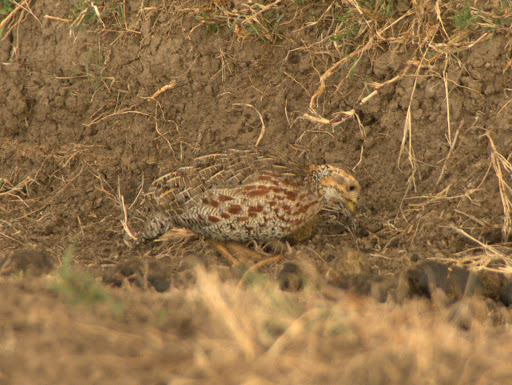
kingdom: Animalia
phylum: Chordata
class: Aves
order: Galliformes
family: Phasianidae
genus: Scleroptila
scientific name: Scleroptila shelleyi
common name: Shelley's francolin
